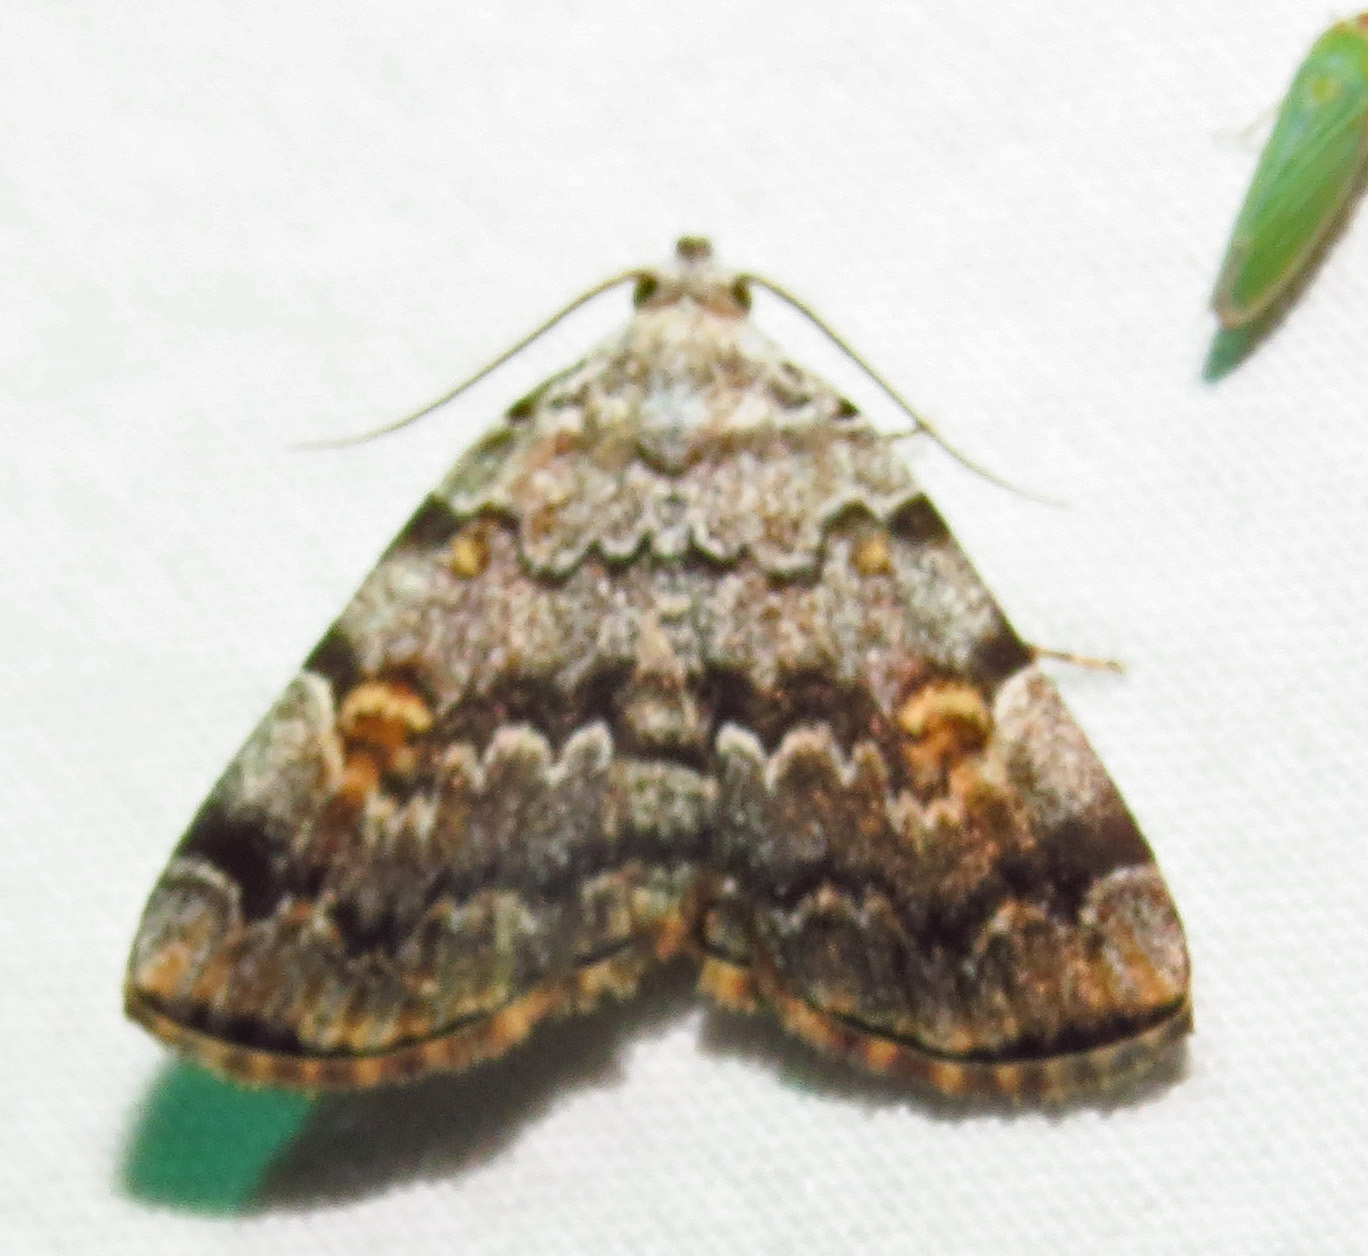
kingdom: Animalia
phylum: Arthropoda
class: Insecta
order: Lepidoptera
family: Erebidae
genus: Idia
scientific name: Idia americalis
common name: American idia moth
